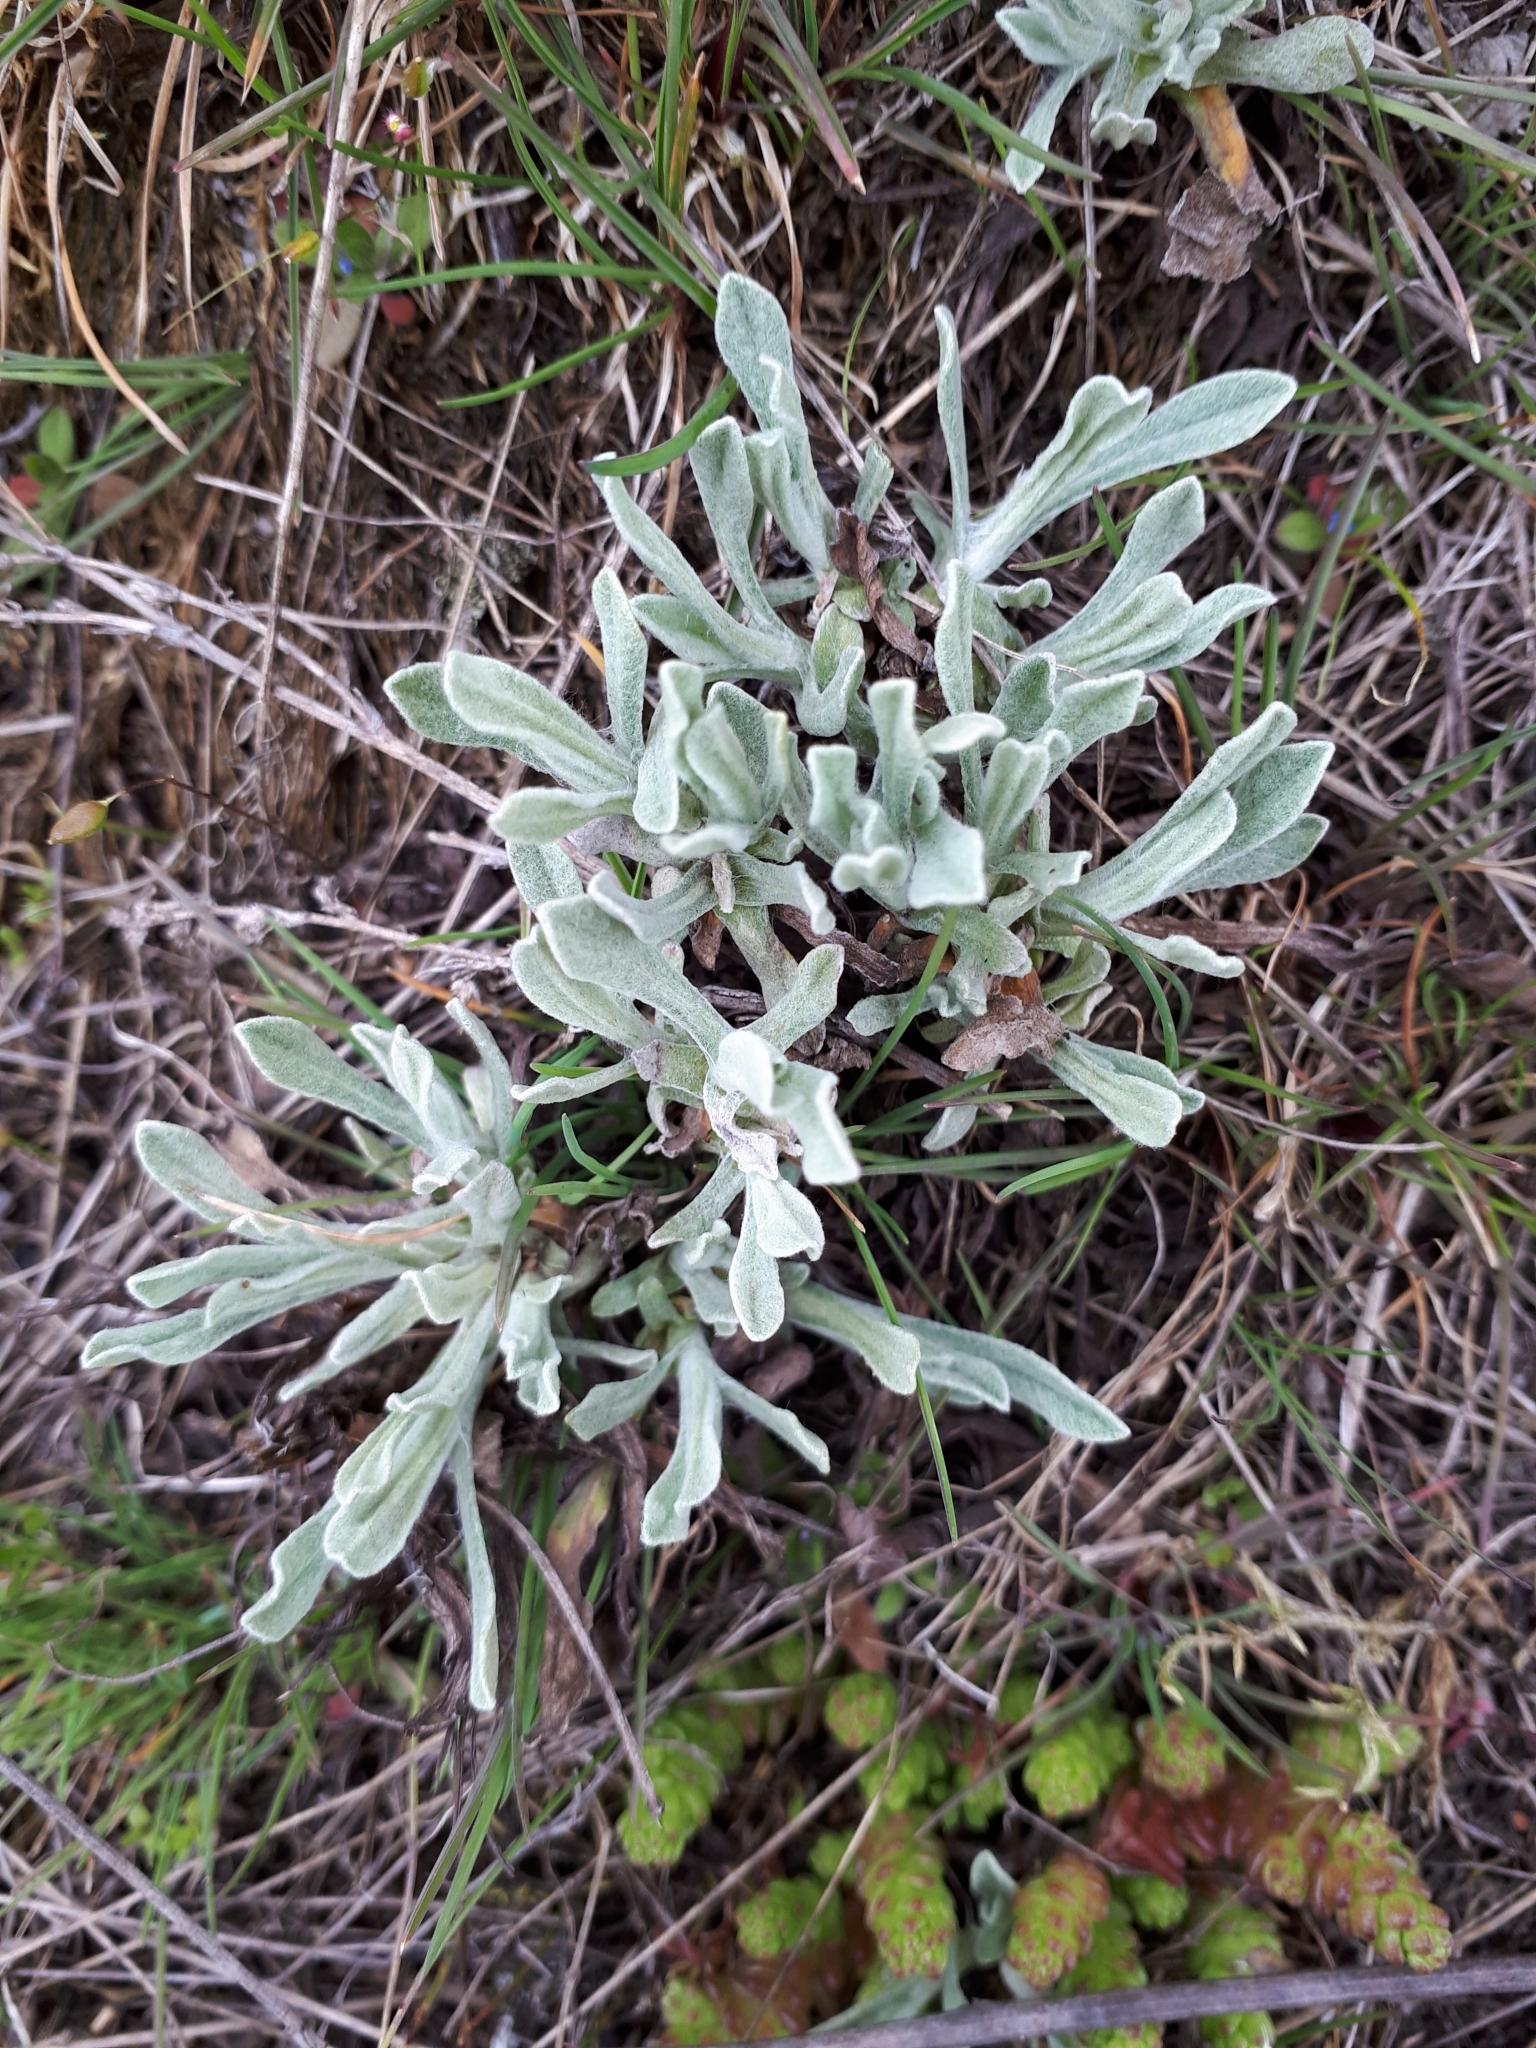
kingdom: Plantae
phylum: Tracheophyta
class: Magnoliopsida
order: Asterales
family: Asteraceae
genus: Helichrysum
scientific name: Helichrysum arenarium
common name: Strawflower
